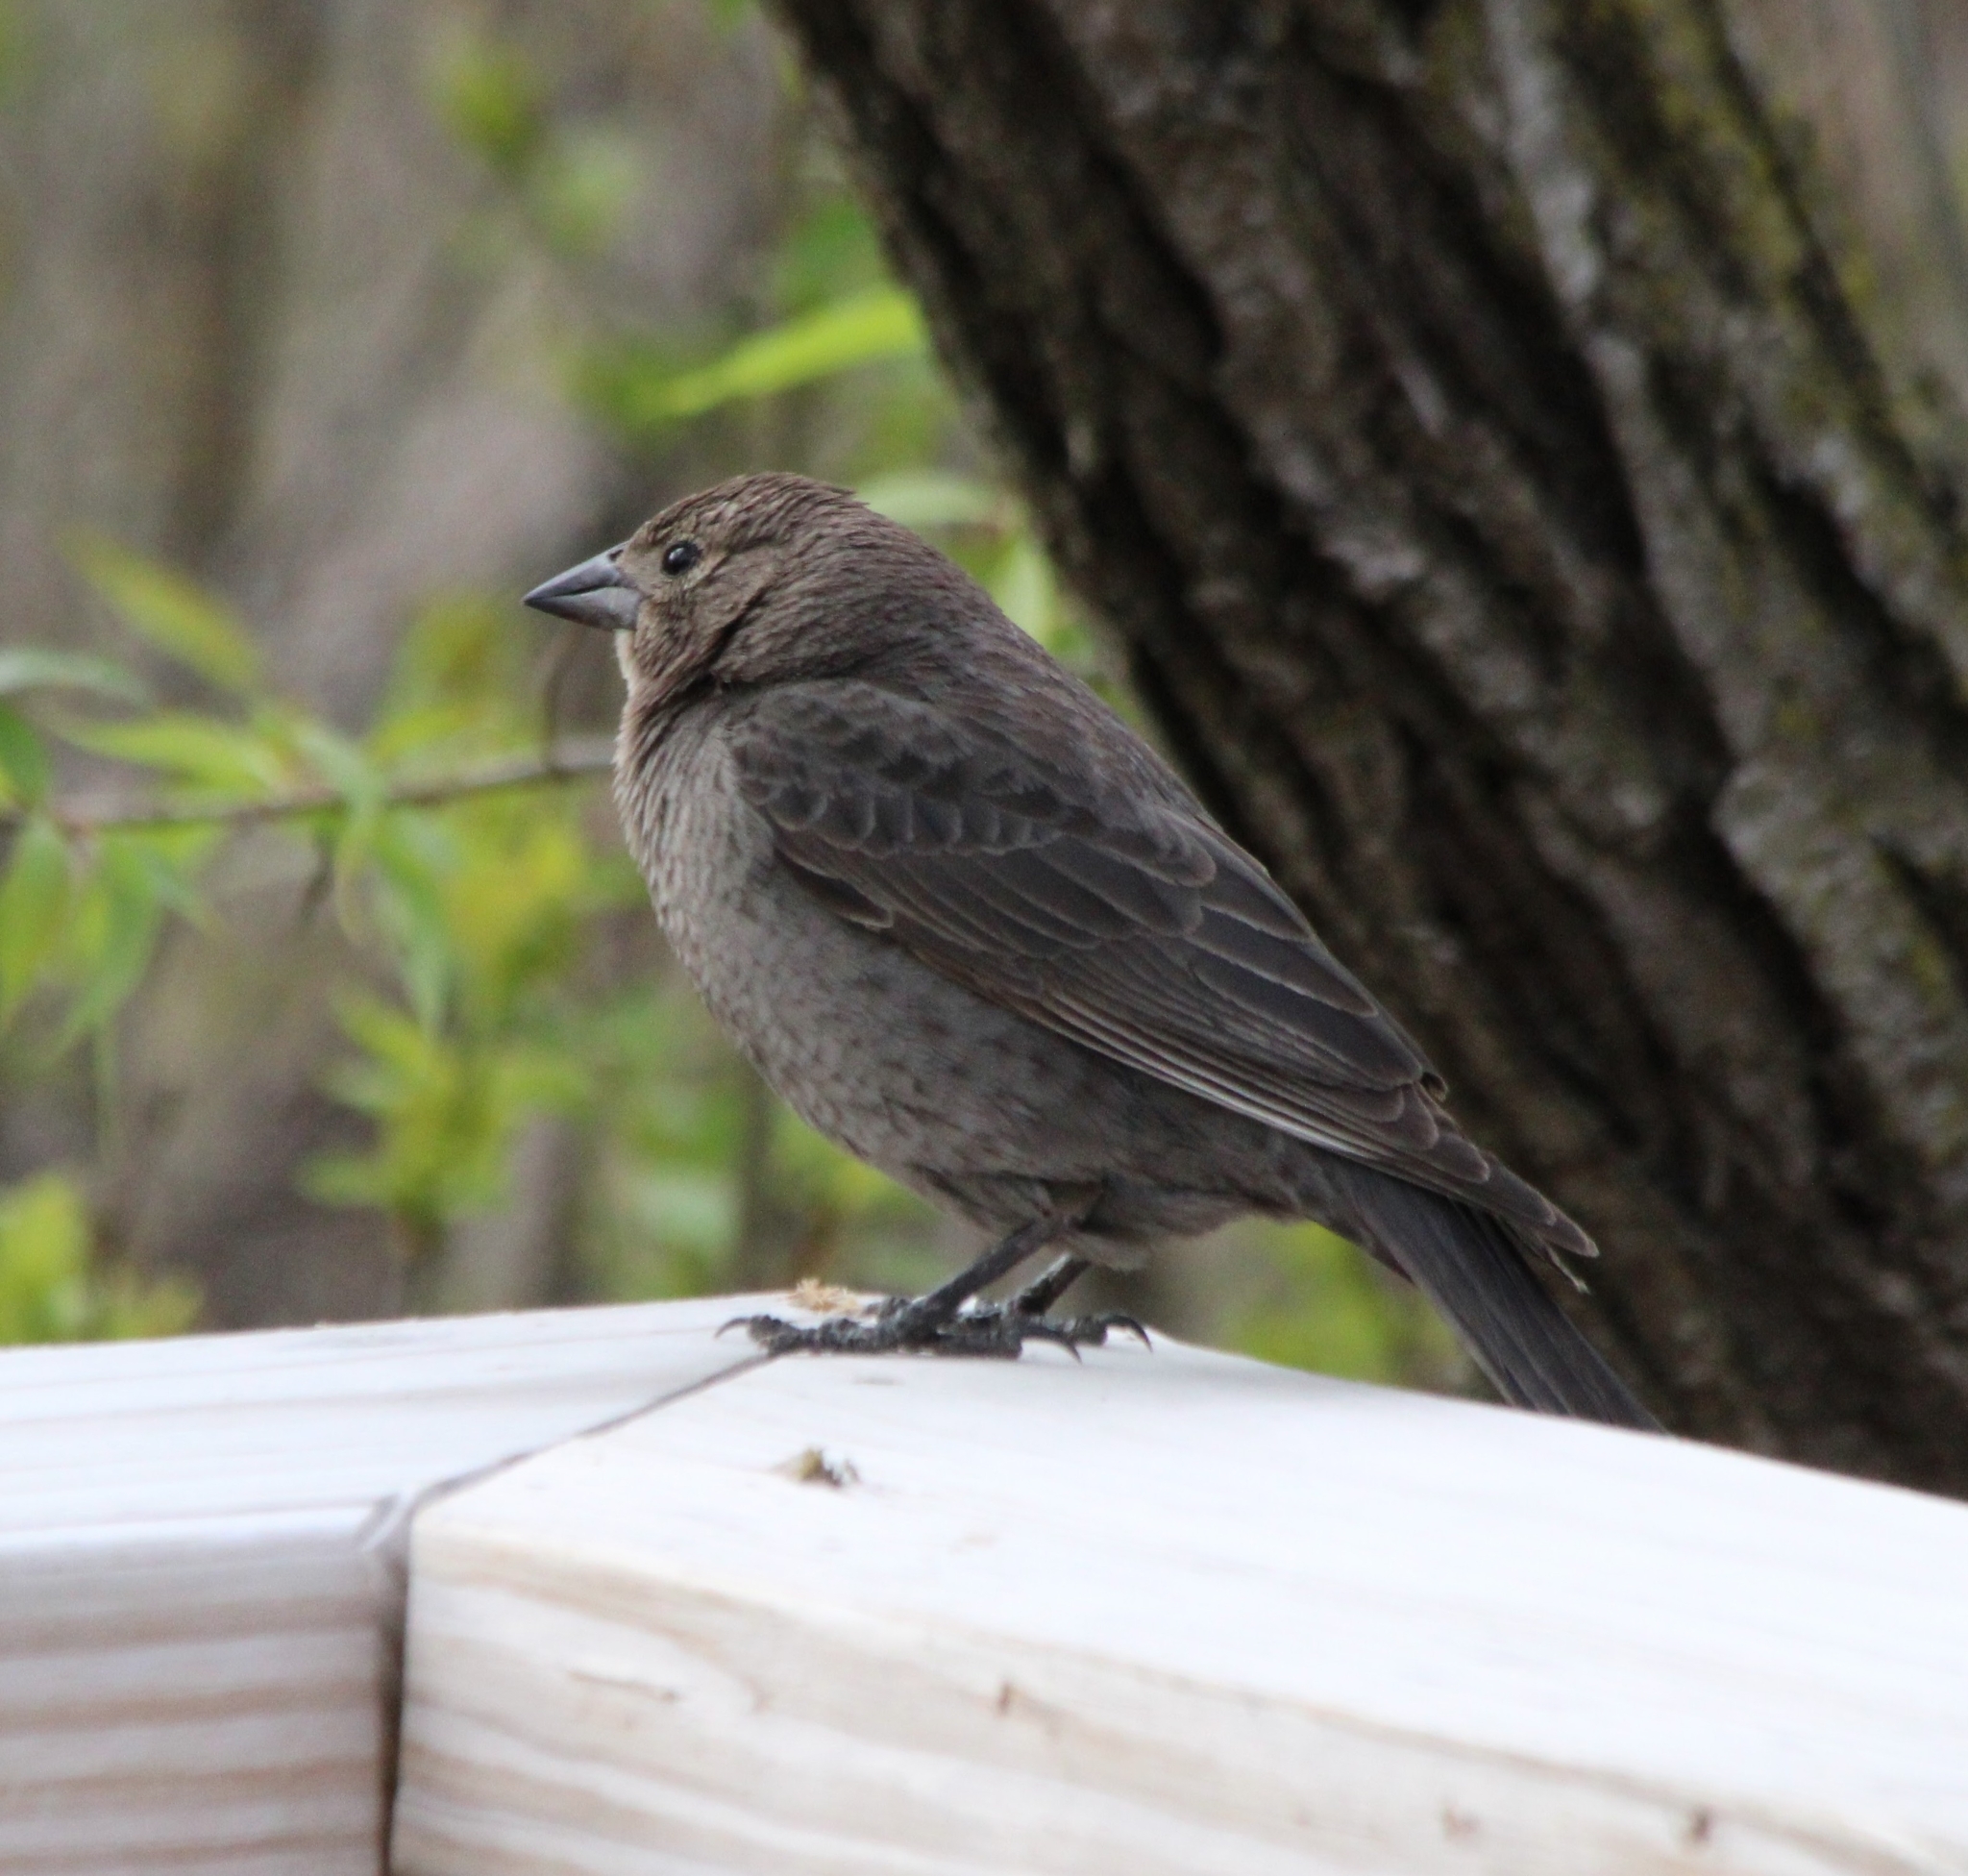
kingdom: Animalia
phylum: Chordata
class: Aves
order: Passeriformes
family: Icteridae
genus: Molothrus
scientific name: Molothrus ater
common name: Brown-headed cowbird
